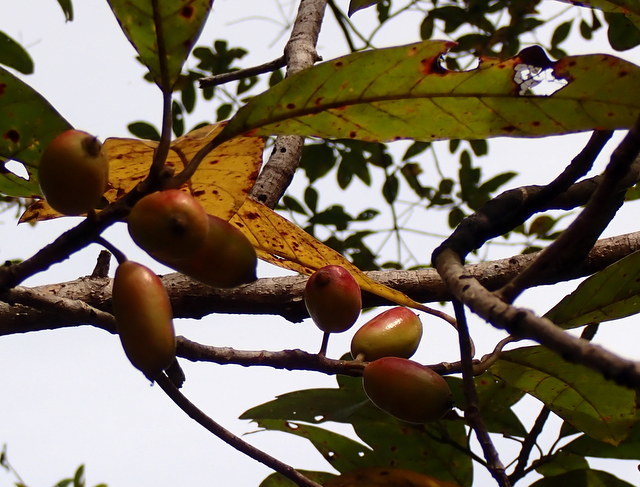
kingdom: Plantae
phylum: Tracheophyta
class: Magnoliopsida
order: Cornales
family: Nyssaceae
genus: Nyssa
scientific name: Nyssa ogeche
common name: Ogeechee tupelo
